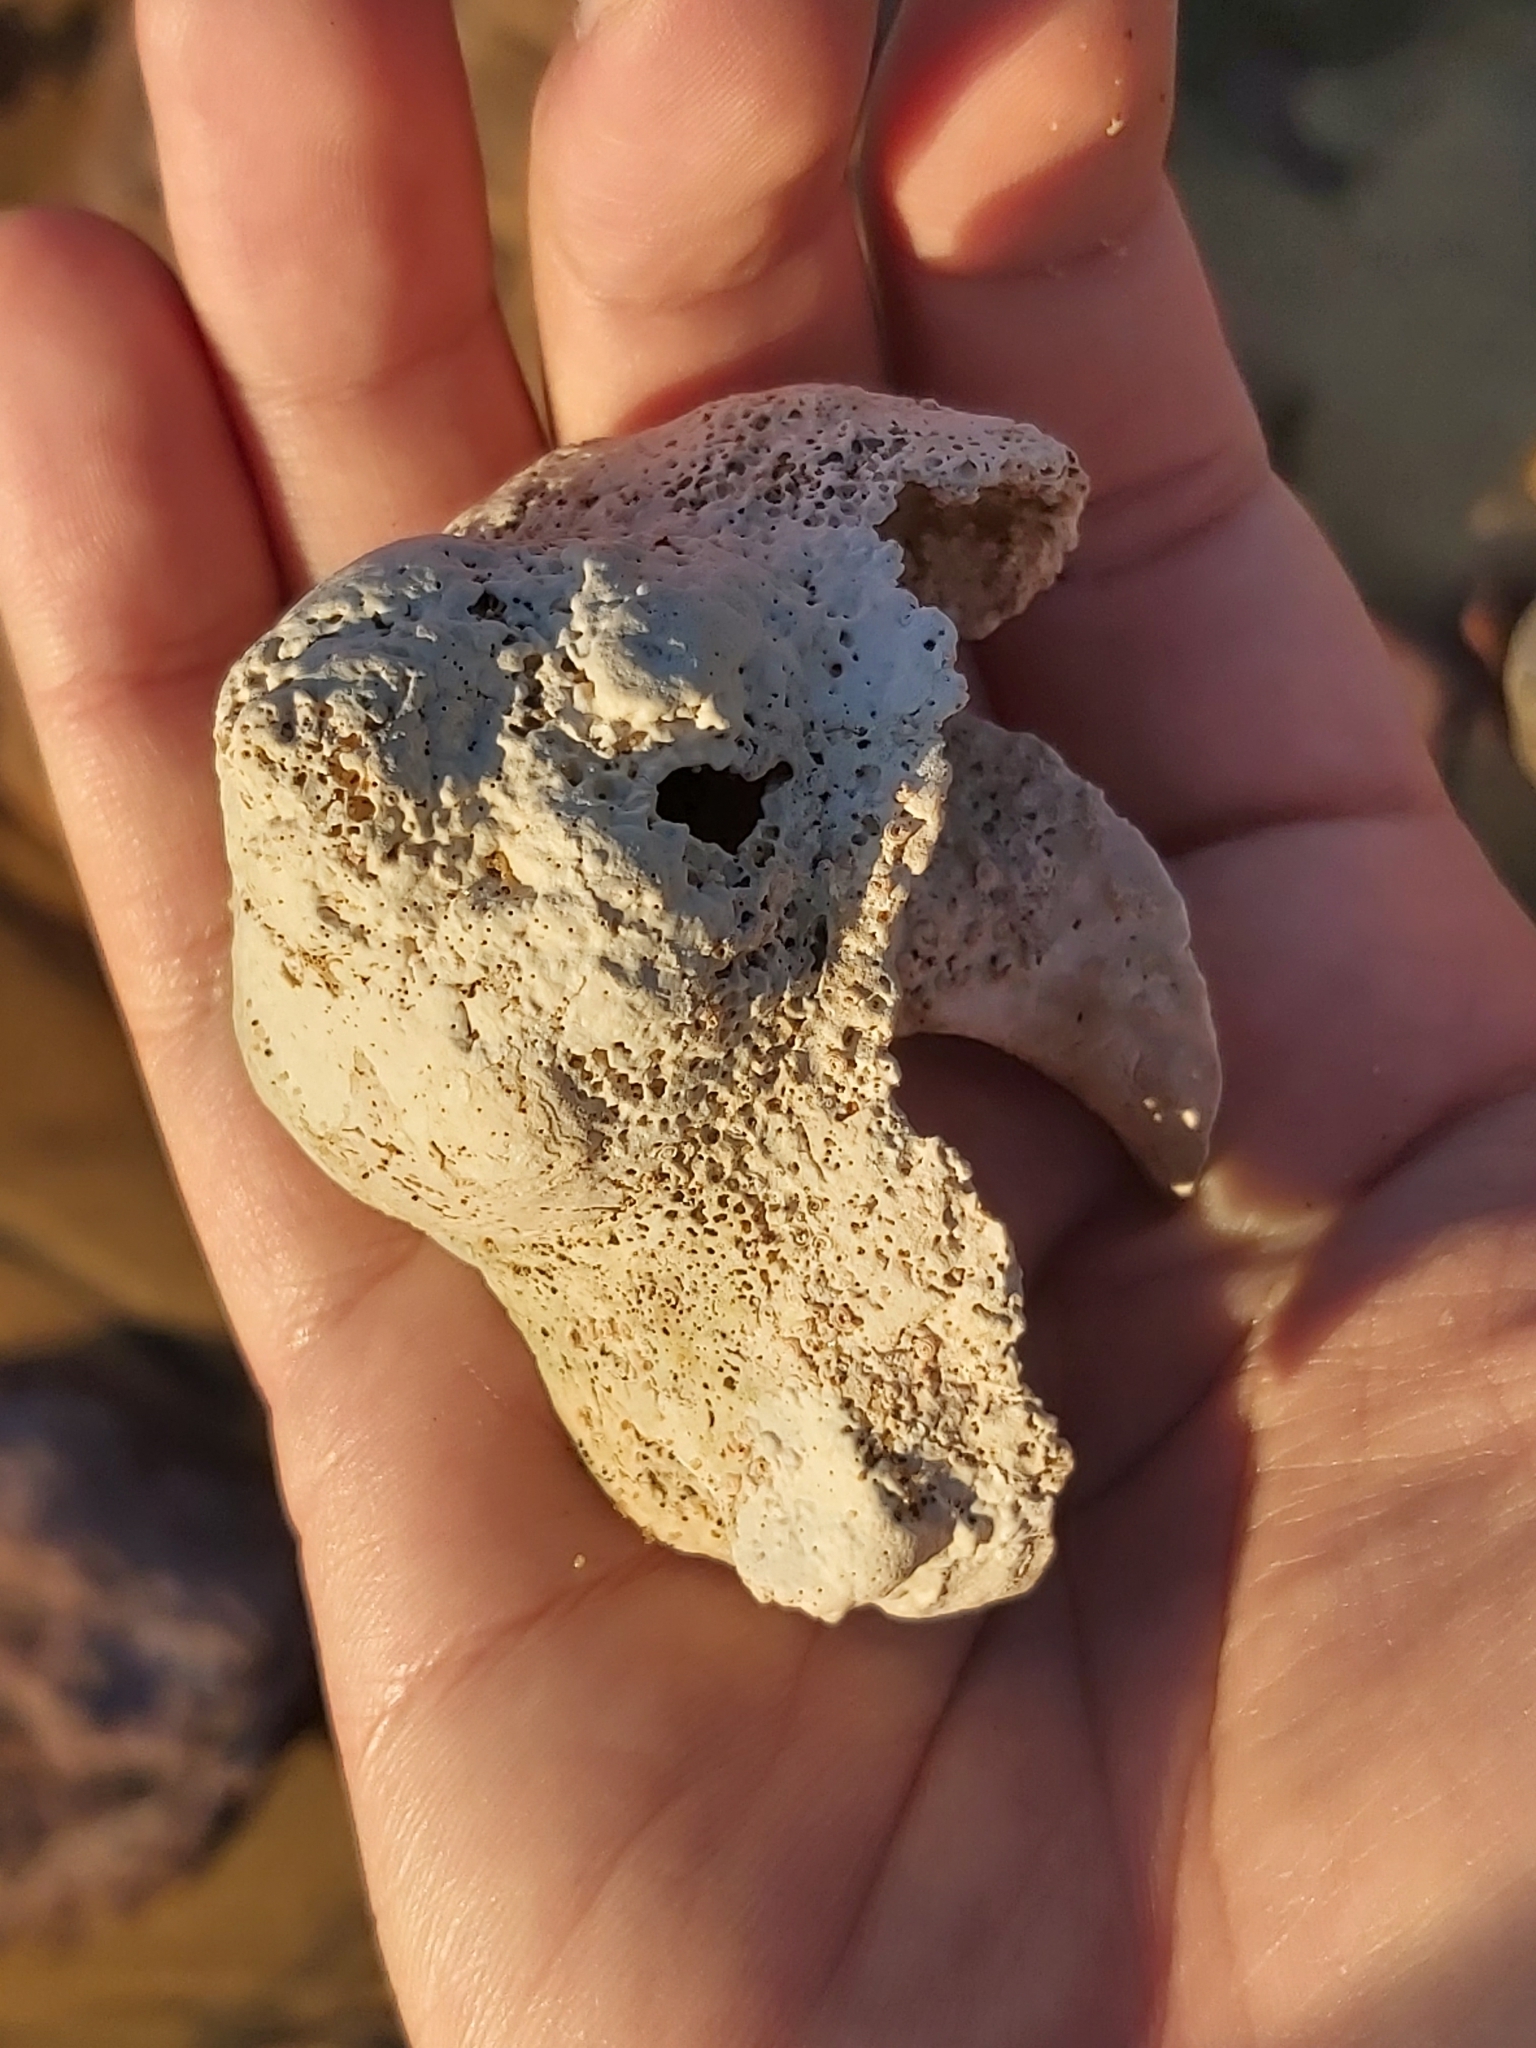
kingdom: Animalia
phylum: Mollusca
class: Gastropoda
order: Trochida
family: Turbinidae
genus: Turbo
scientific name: Turbo militaris
